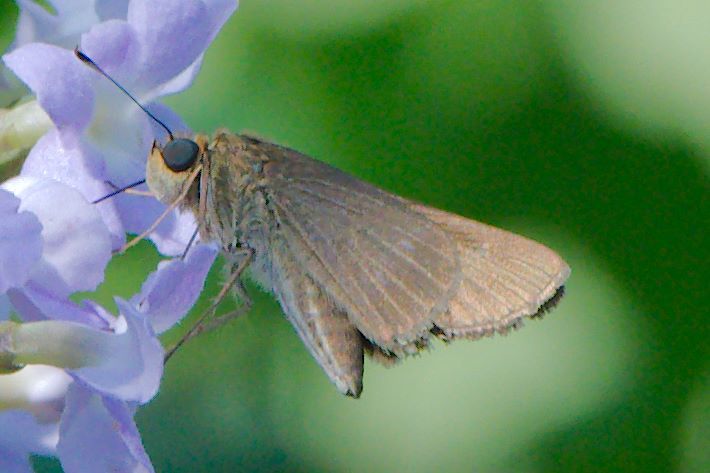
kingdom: Animalia
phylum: Arthropoda
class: Insecta
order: Lepidoptera
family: Hesperiidae
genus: Panoquina
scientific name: Panoquina ocola
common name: Ocola skipper
